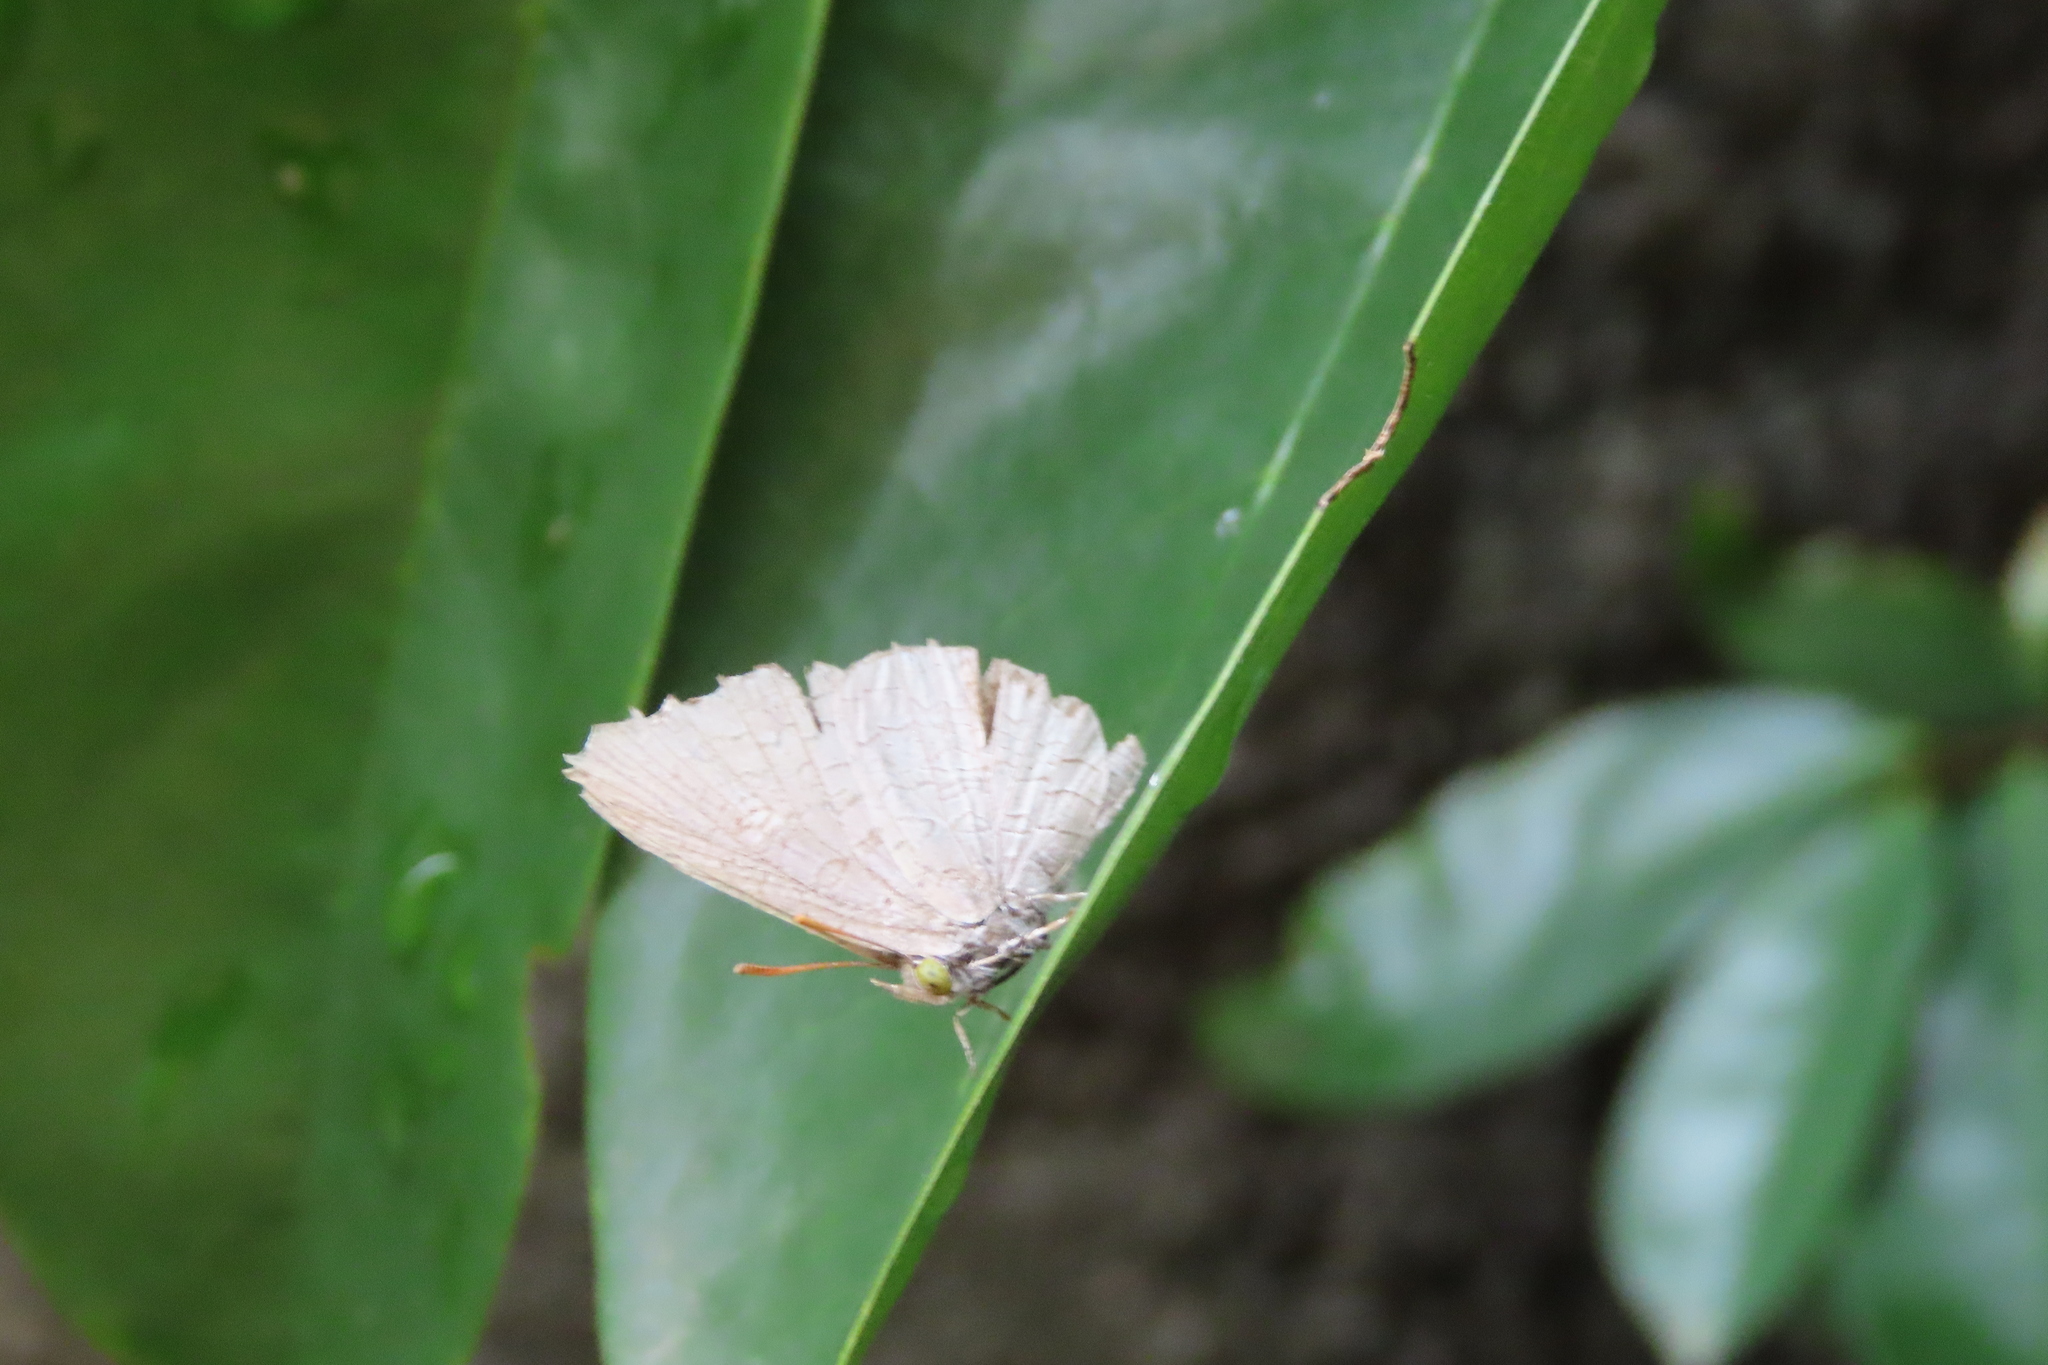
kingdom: Animalia
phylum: Arthropoda
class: Insecta
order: Lepidoptera
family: Lycaenidae
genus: Spalgis
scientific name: Spalgis epius
